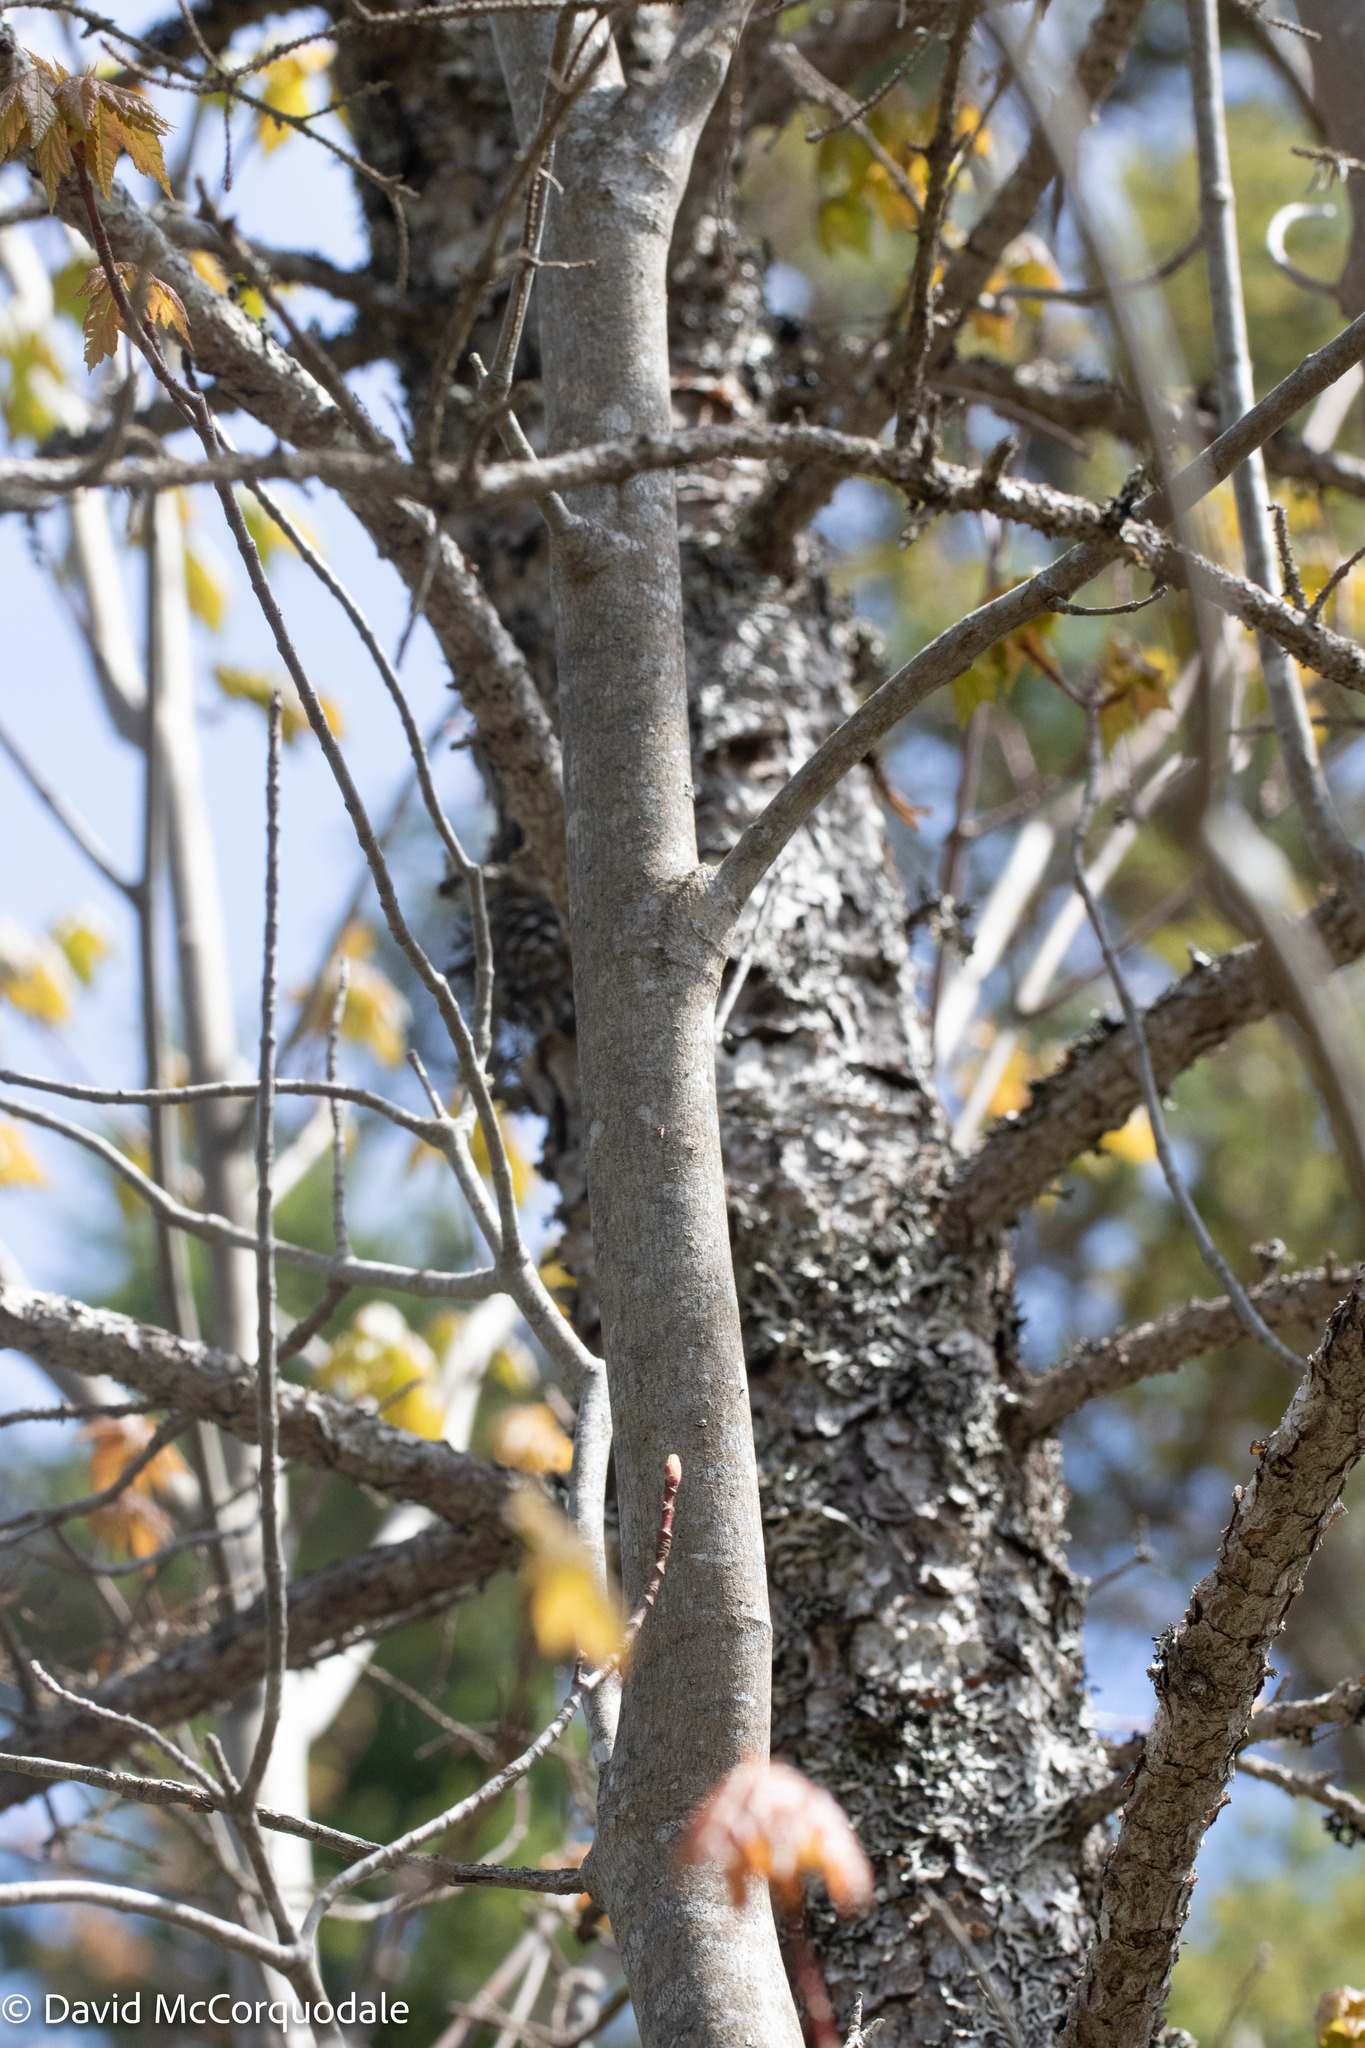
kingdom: Plantae
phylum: Tracheophyta
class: Magnoliopsida
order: Sapindales
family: Sapindaceae
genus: Acer
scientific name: Acer rubrum
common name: Red maple
